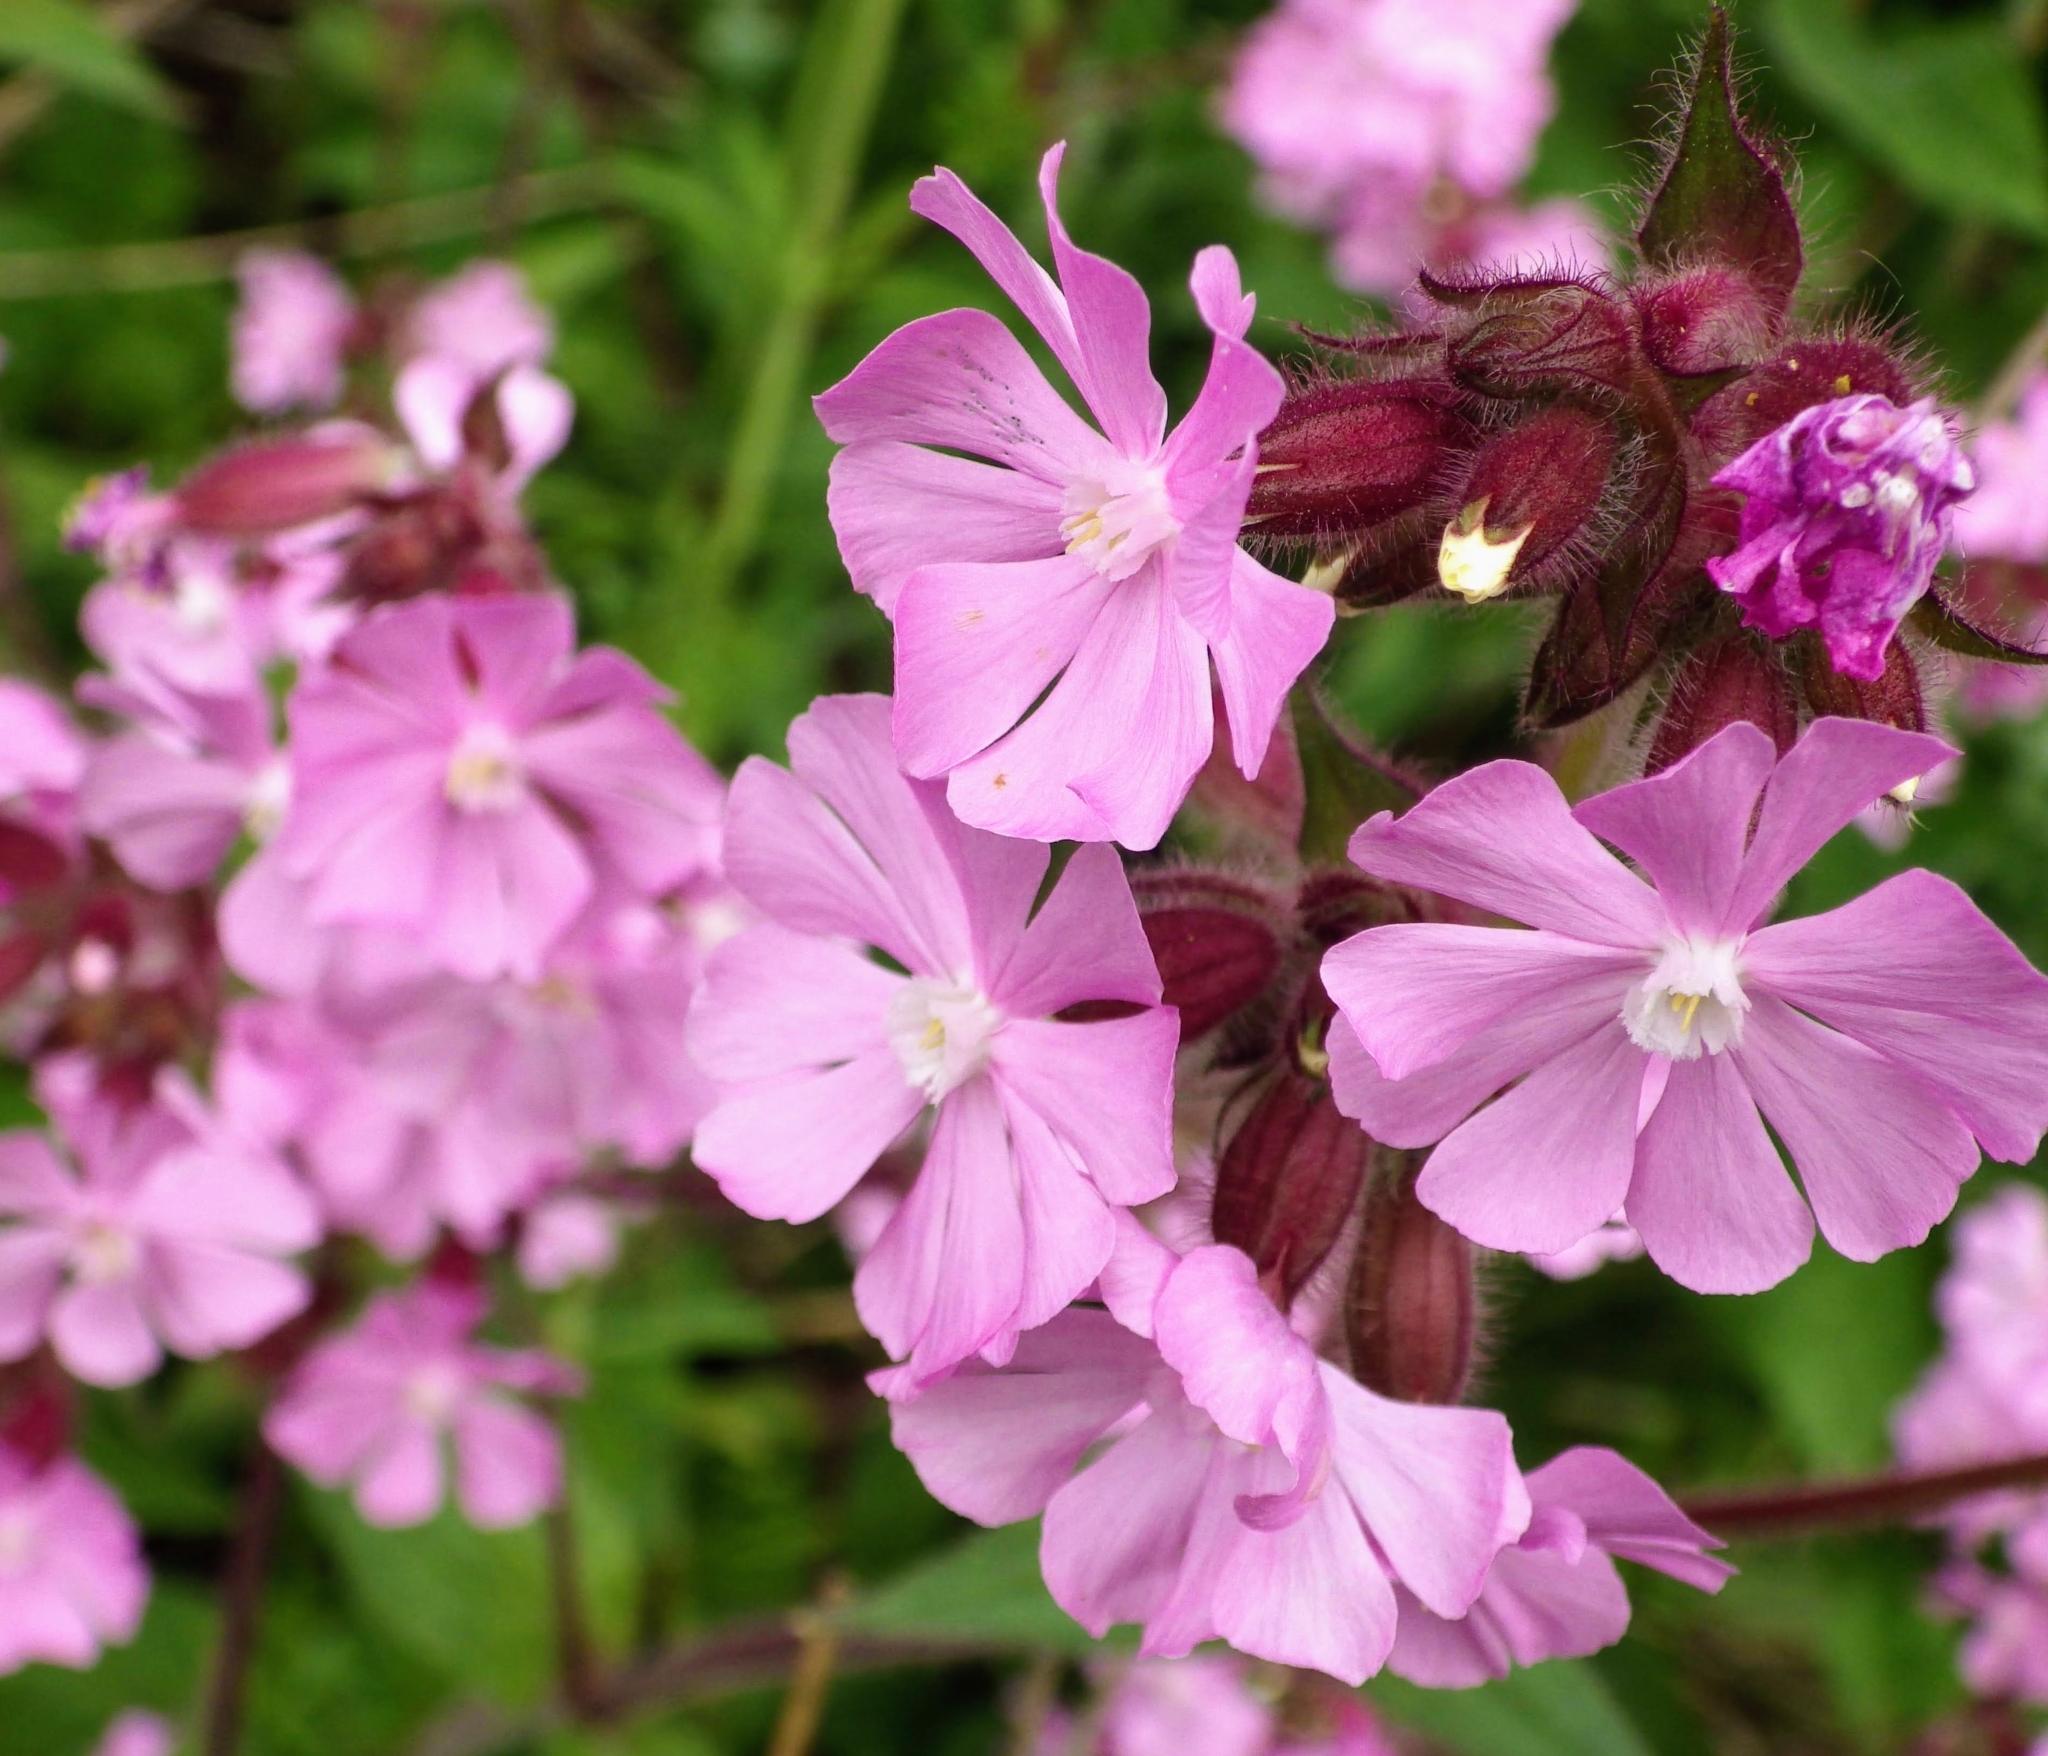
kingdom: Plantae
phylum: Tracheophyta
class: Magnoliopsida
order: Caryophyllales
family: Caryophyllaceae
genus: Silene
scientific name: Silene dioica
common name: Red campion
